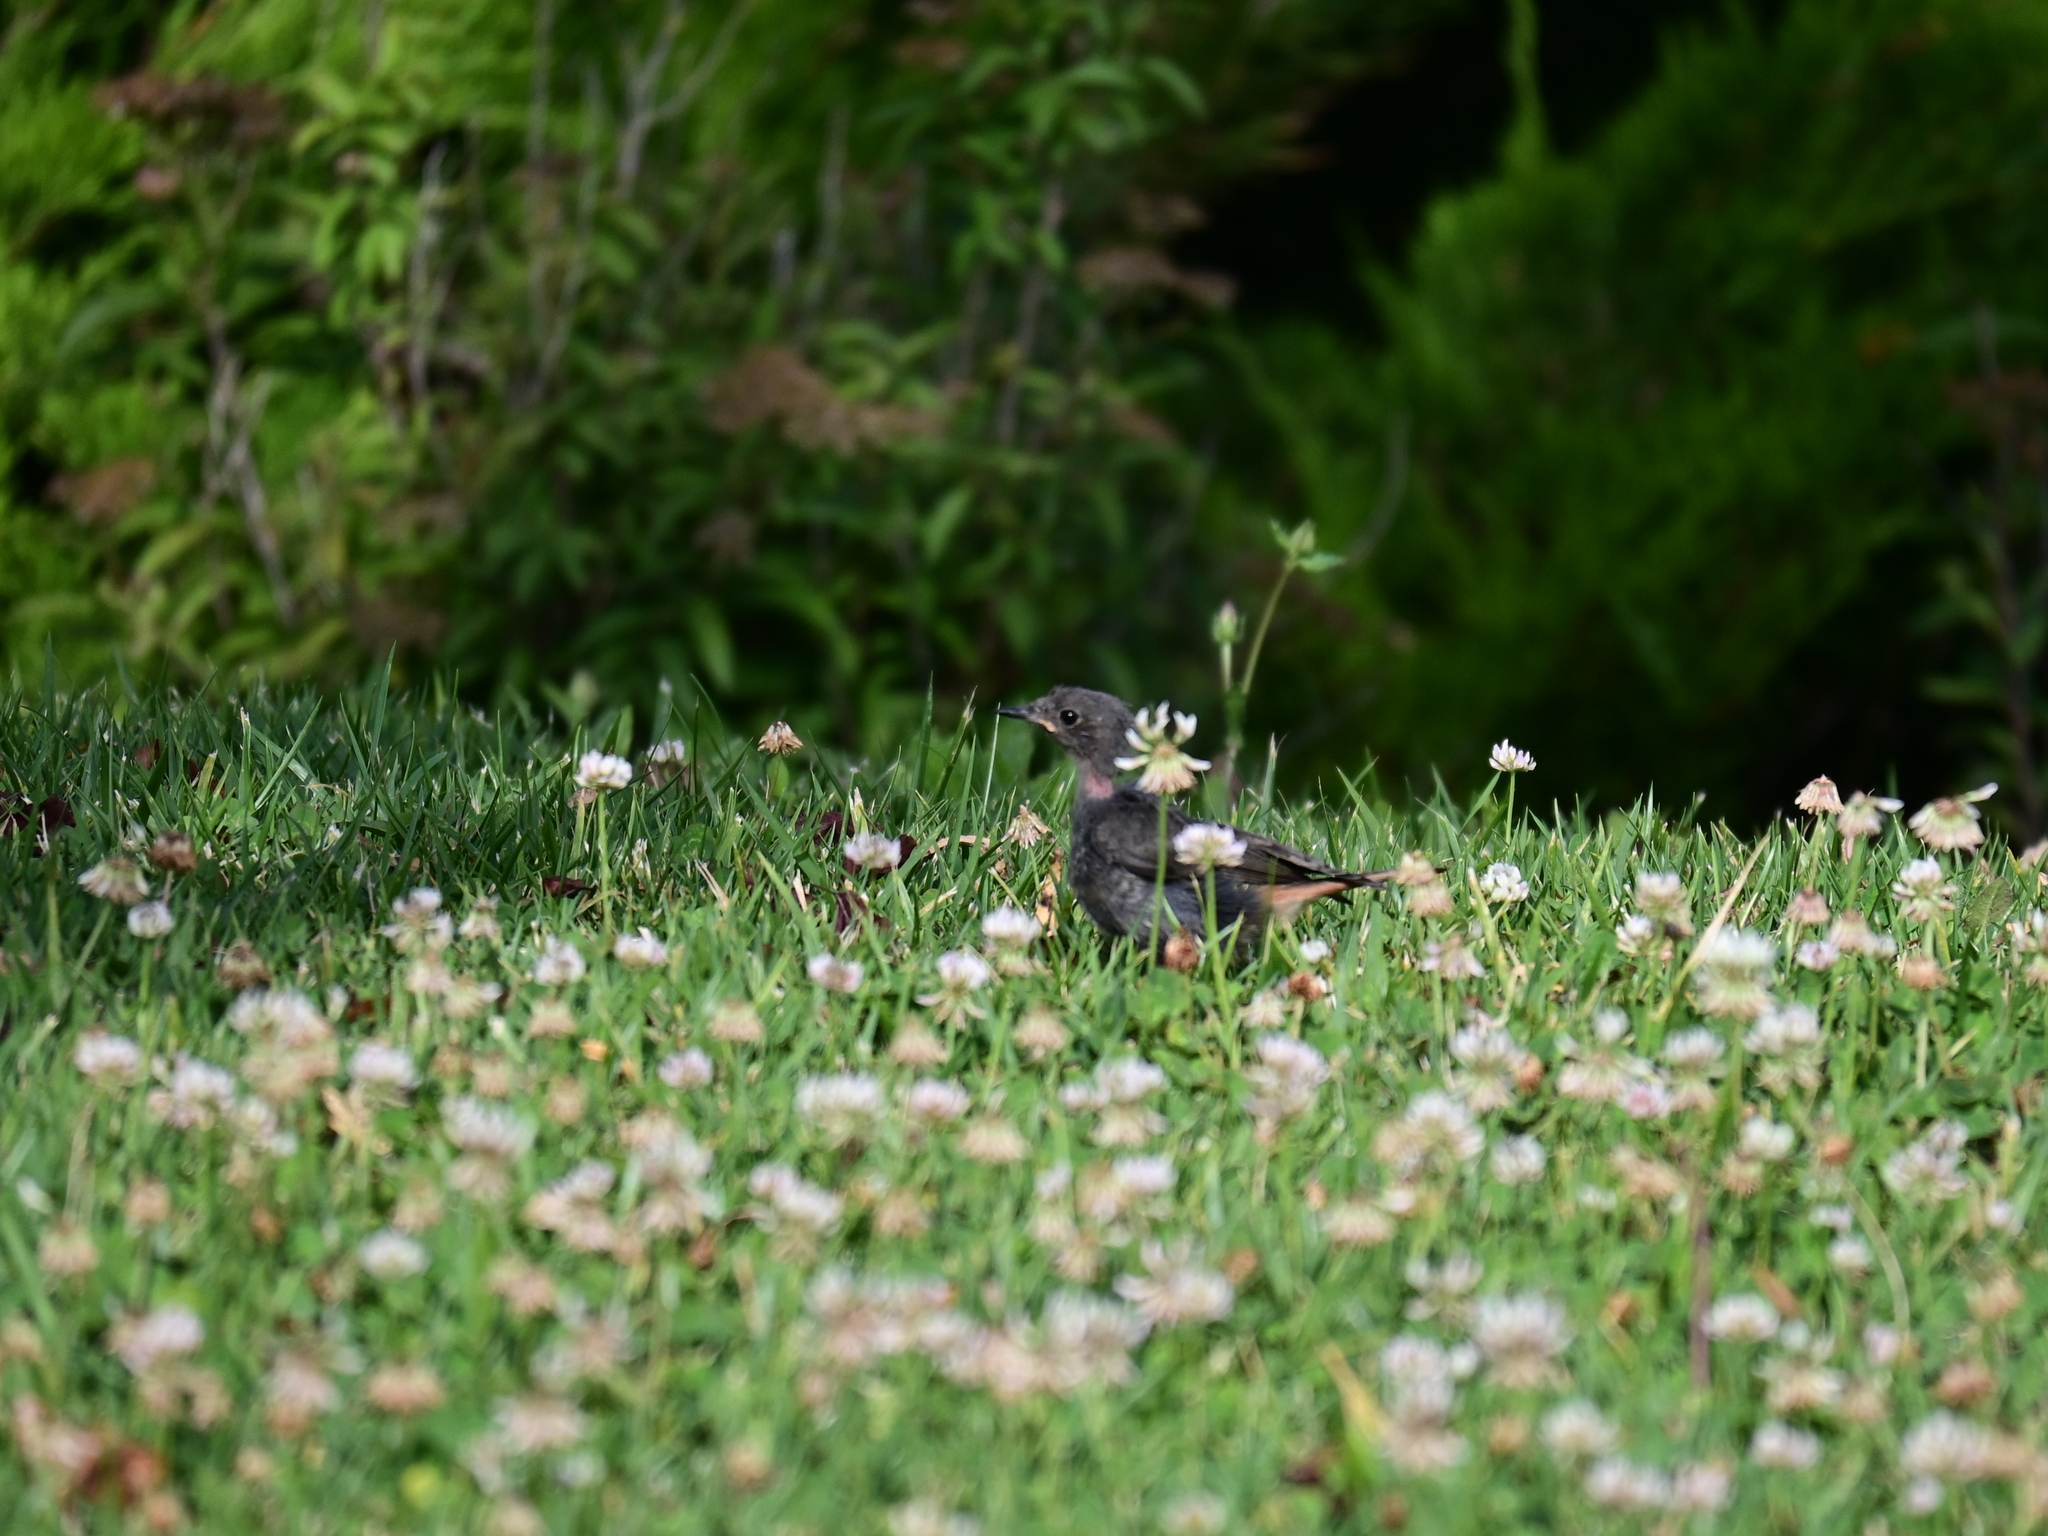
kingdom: Animalia
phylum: Chordata
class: Aves
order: Passeriformes
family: Muscicapidae
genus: Phoenicurus
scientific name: Phoenicurus ochruros
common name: Black redstart
